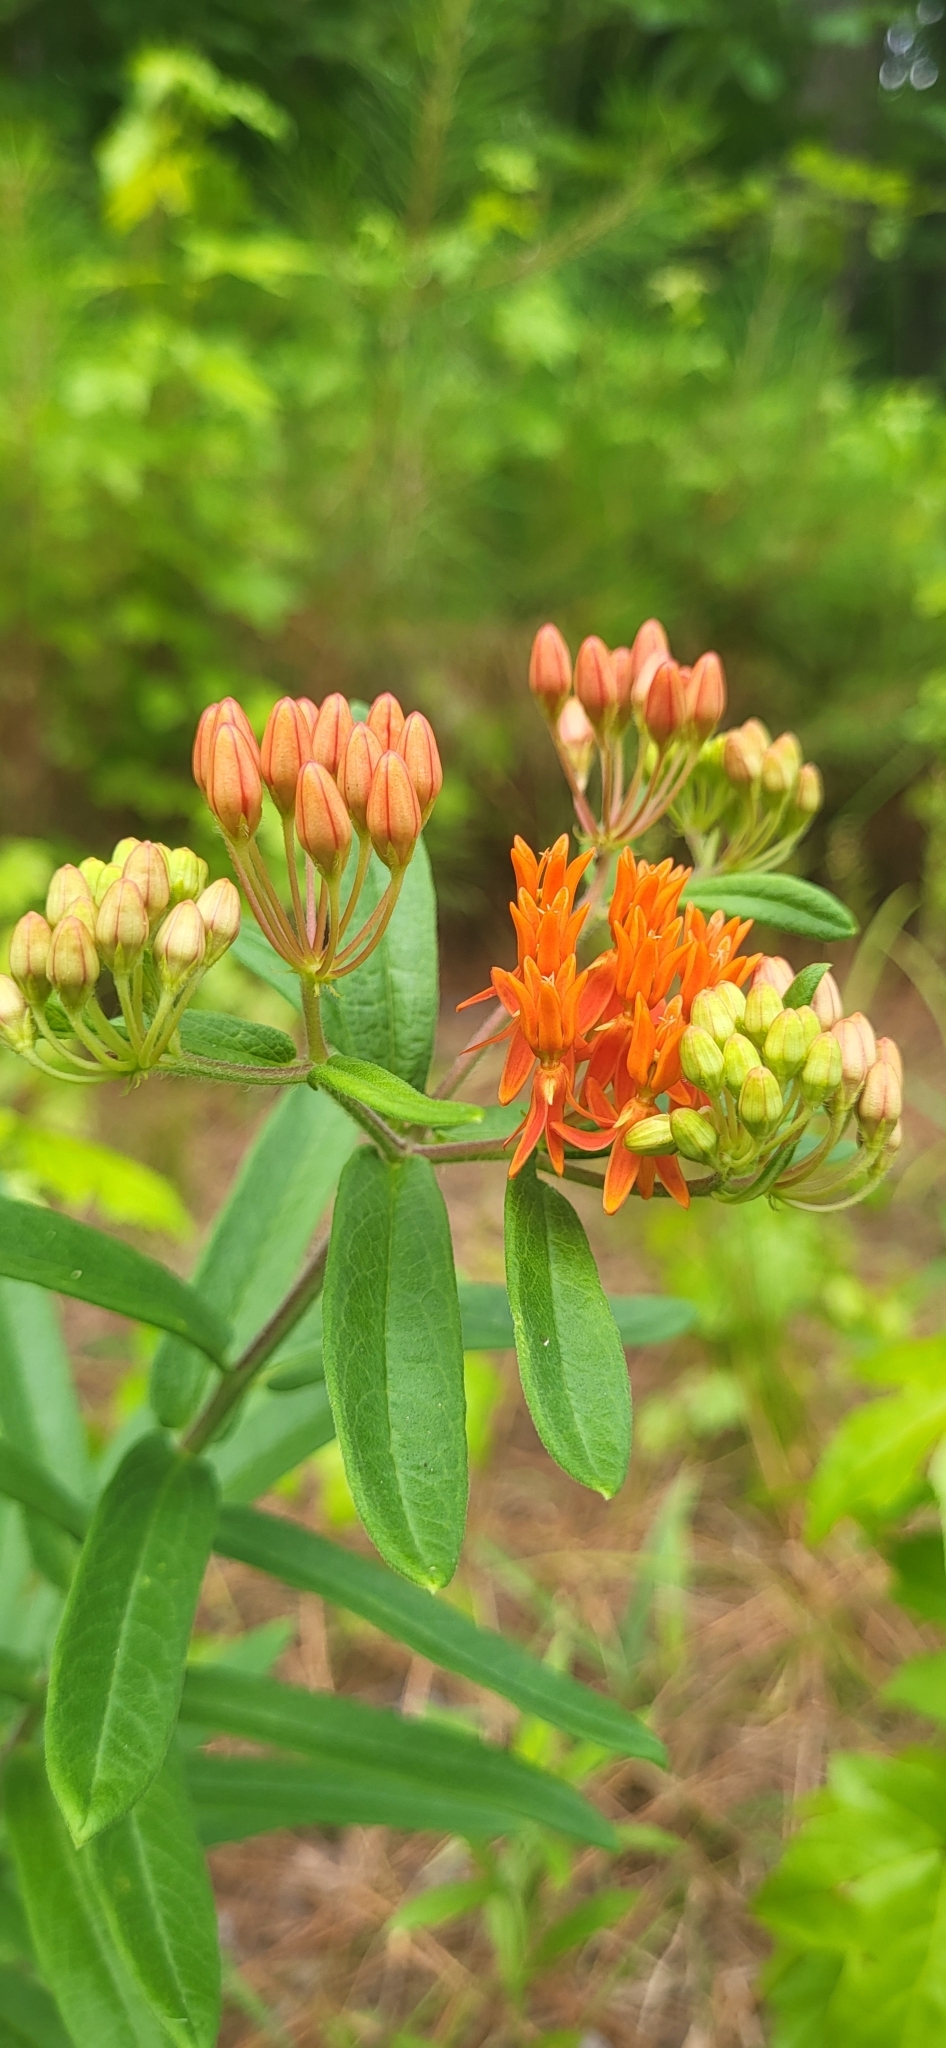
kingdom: Plantae
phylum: Tracheophyta
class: Magnoliopsida
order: Gentianales
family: Apocynaceae
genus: Asclepias
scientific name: Asclepias tuberosa
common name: Butterfly milkweed
